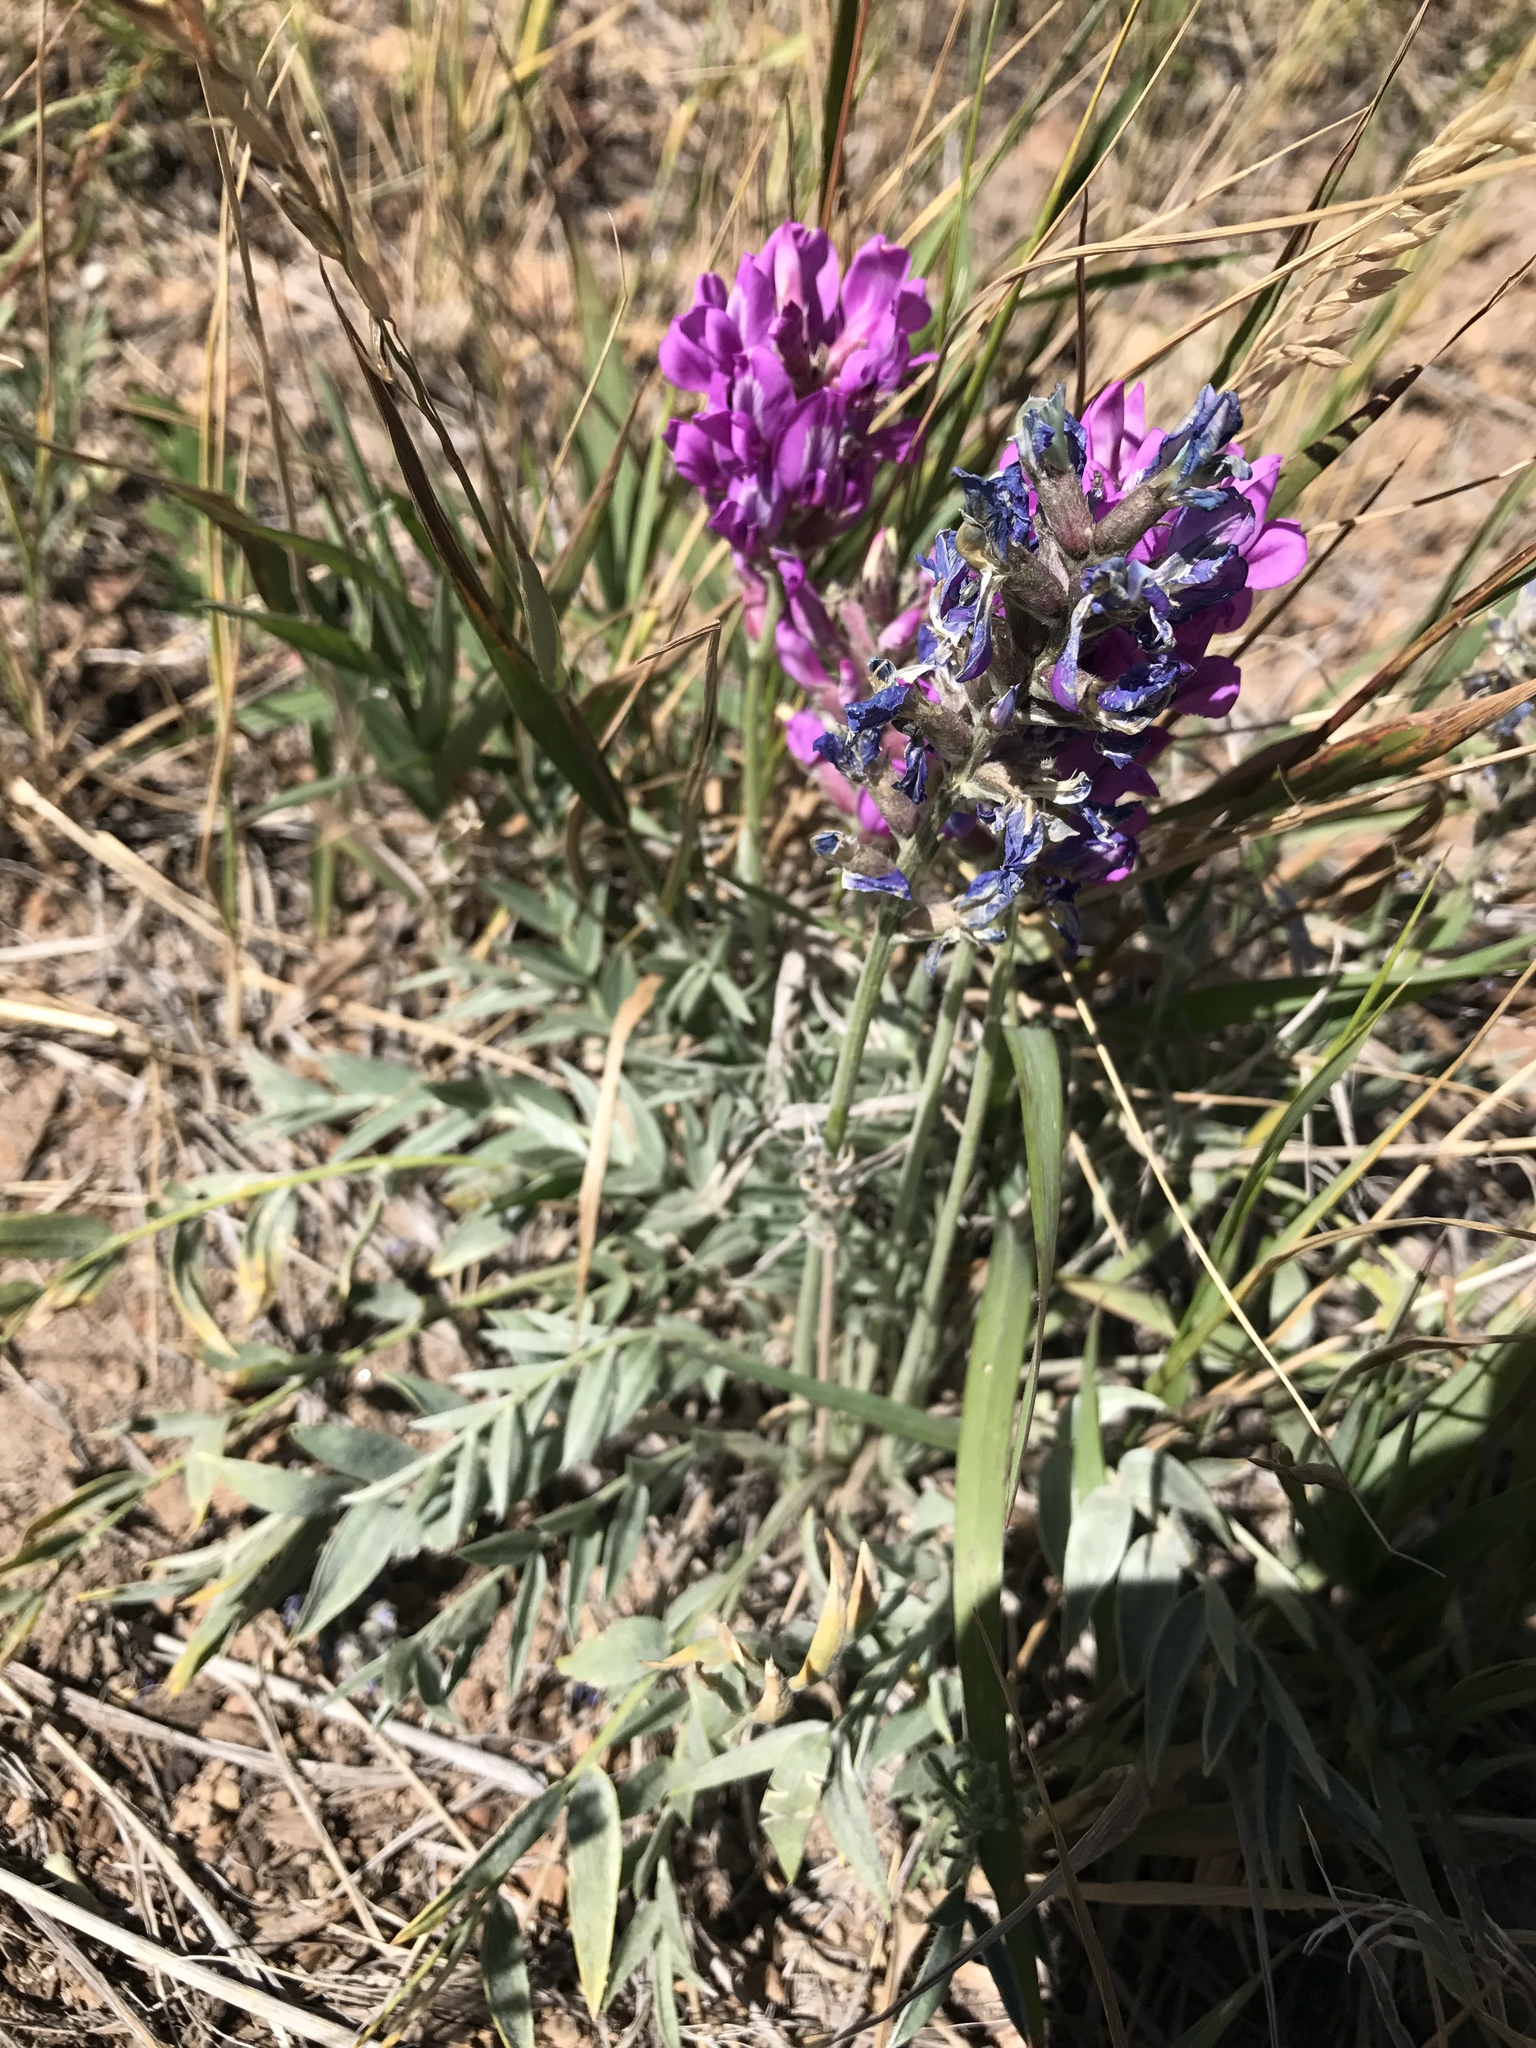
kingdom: Plantae
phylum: Tracheophyta
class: Magnoliopsida
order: Fabales
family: Fabaceae
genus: Oxytropis
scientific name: Oxytropis lambertii
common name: Purple locoweed
